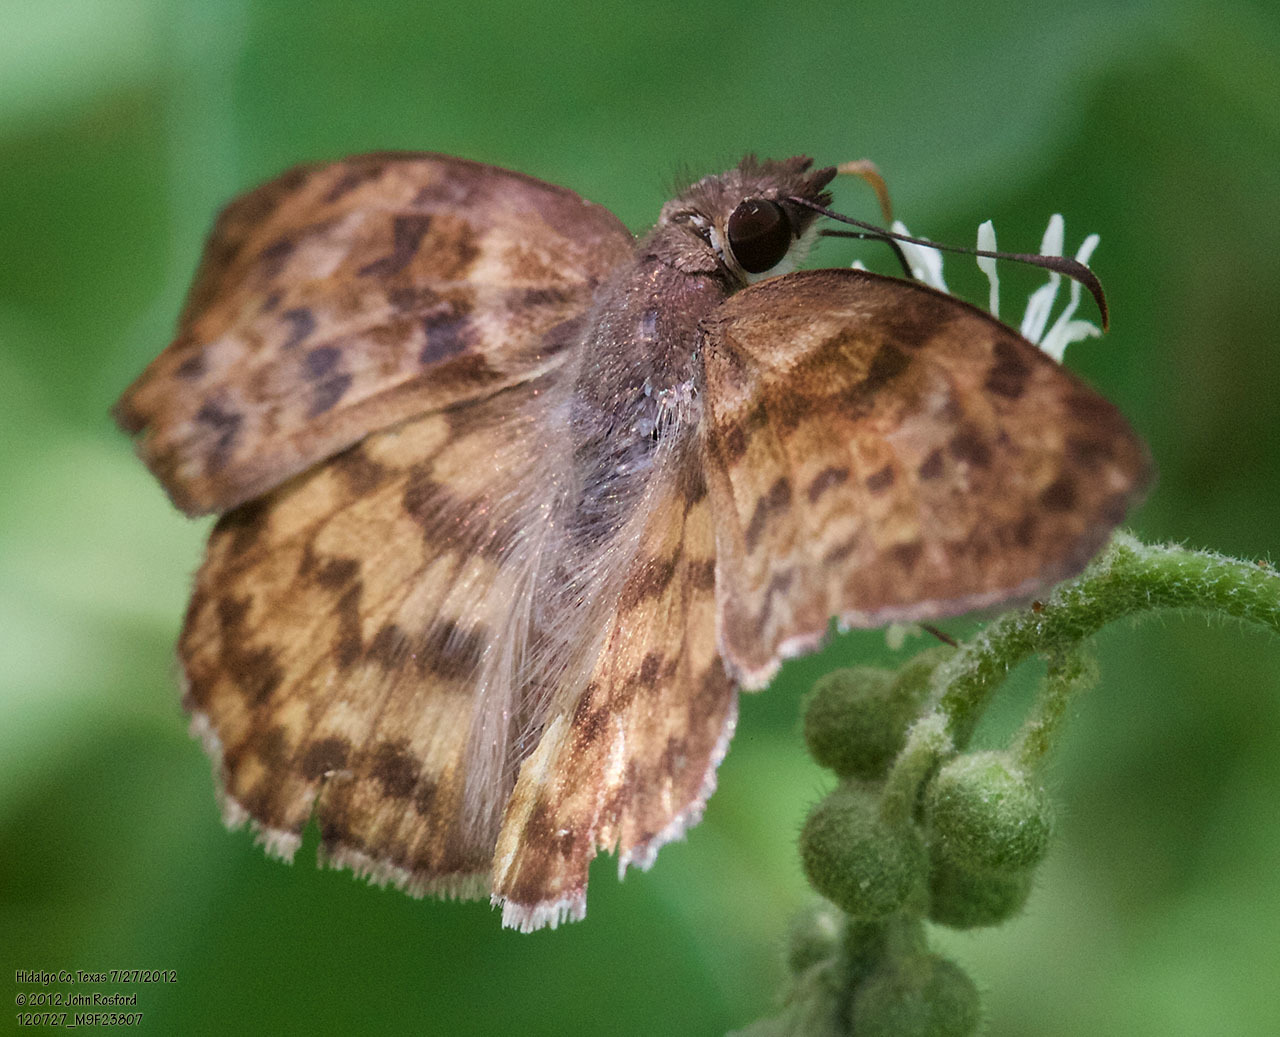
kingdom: Animalia
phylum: Arthropoda
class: Insecta
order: Lepidoptera
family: Hesperiidae
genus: Timochares
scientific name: Timochares ruptifasciata
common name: Brown-banded skipper
